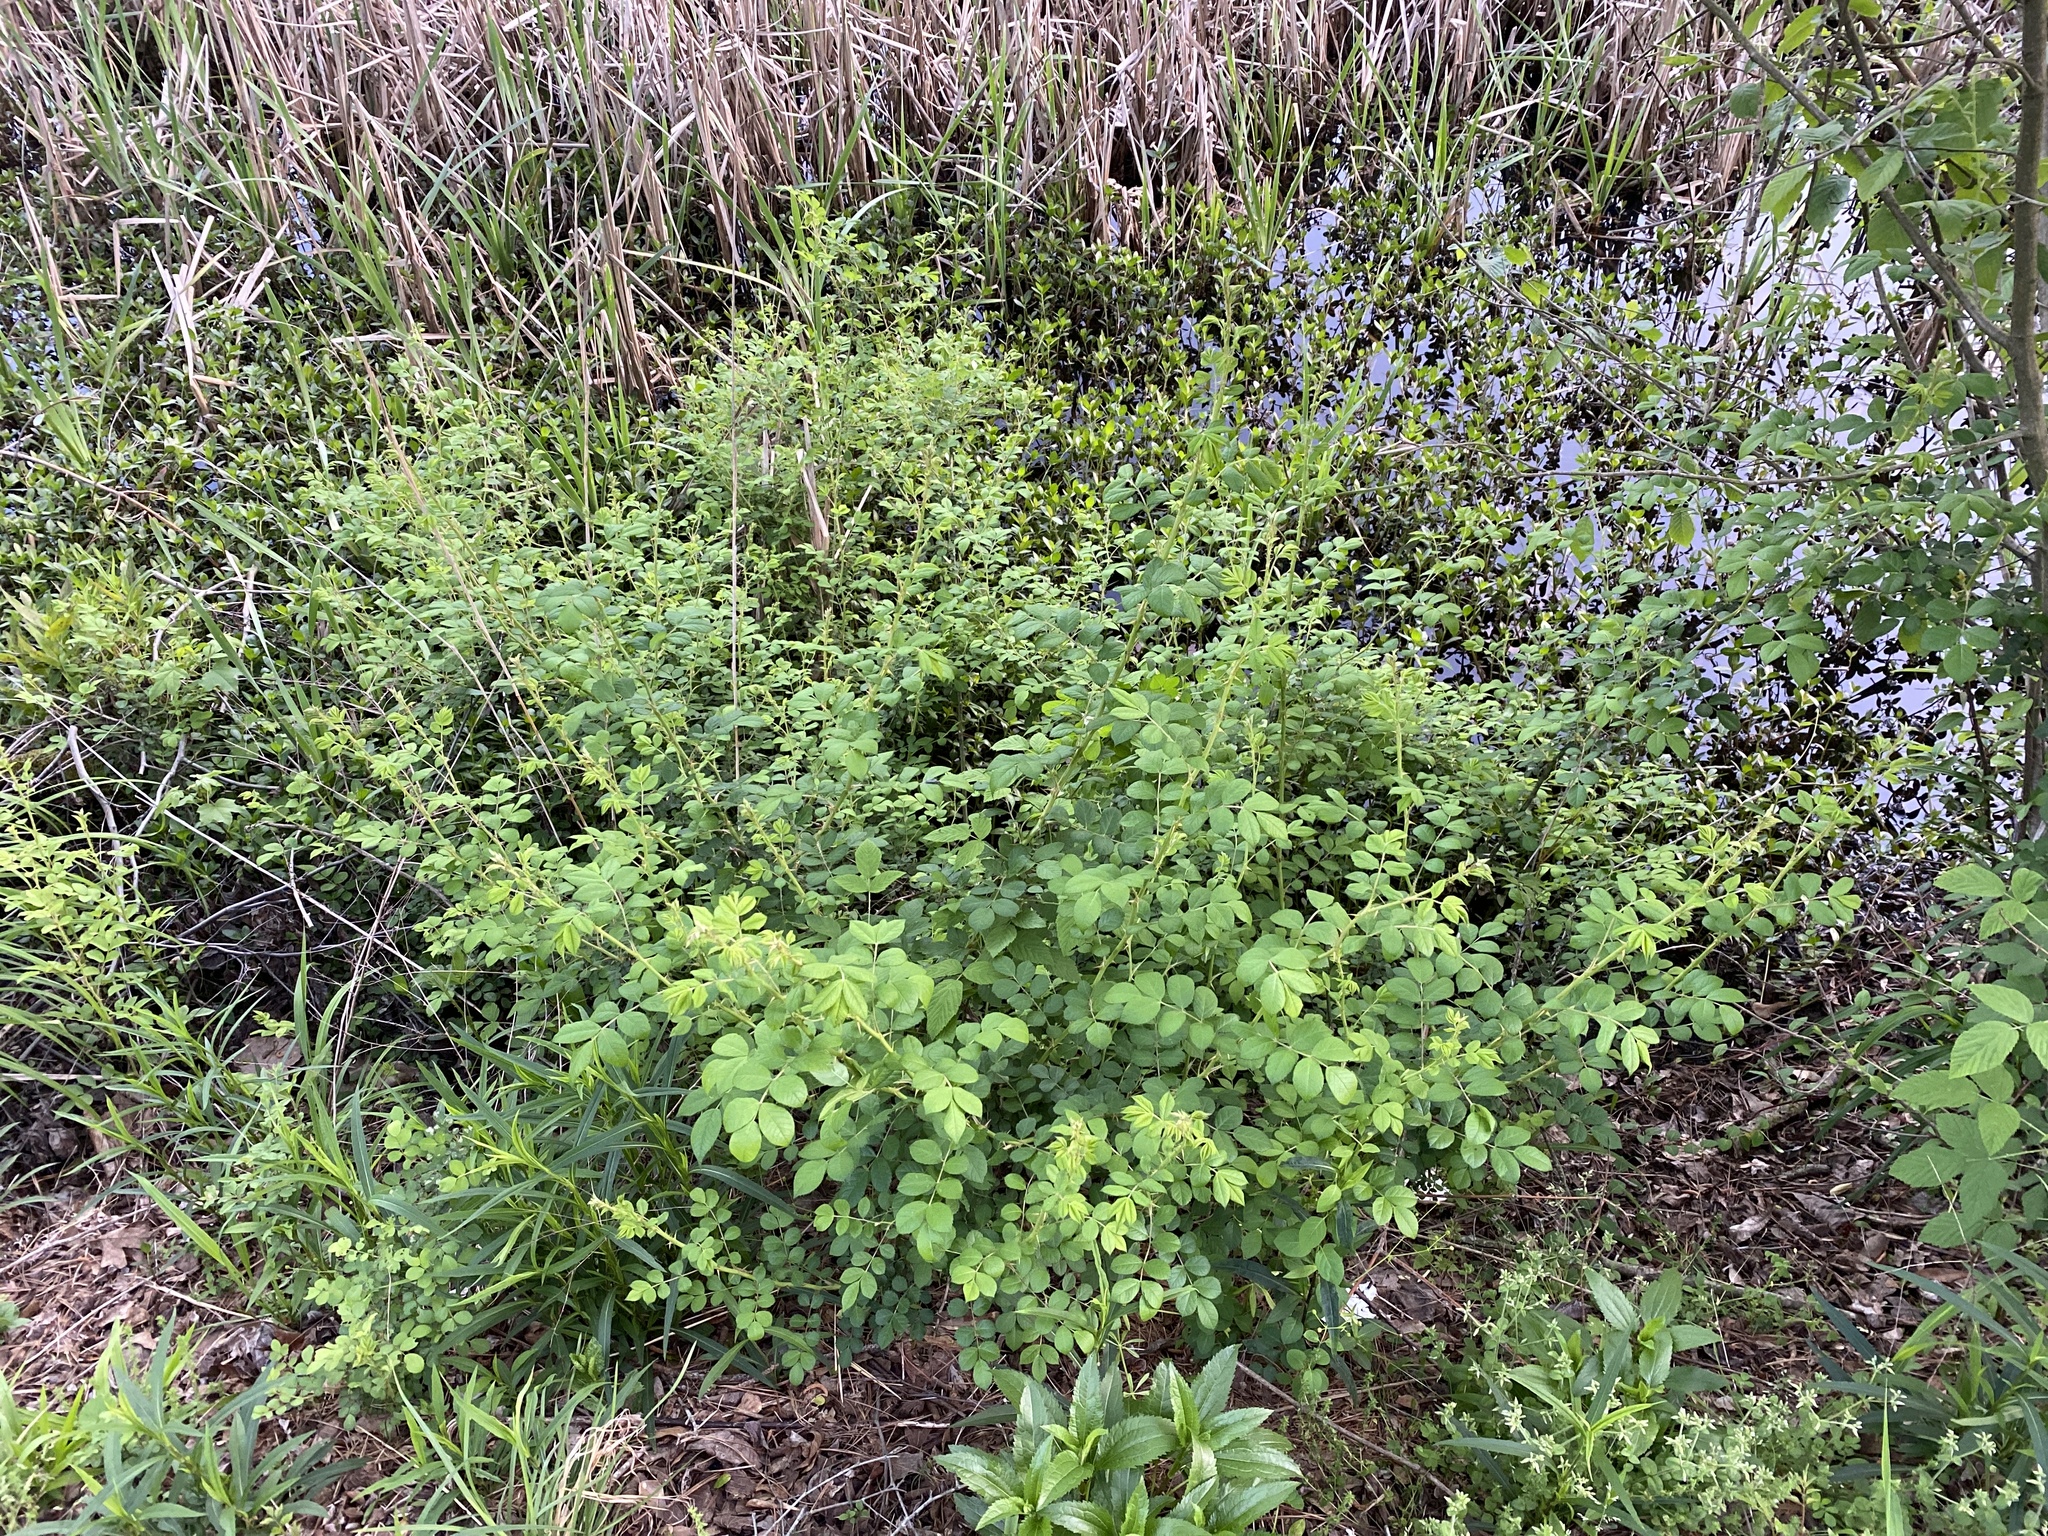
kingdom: Plantae
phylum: Tracheophyta
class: Magnoliopsida
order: Rosales
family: Rosaceae
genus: Rosa
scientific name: Rosa multiflora
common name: Multiflora rose
